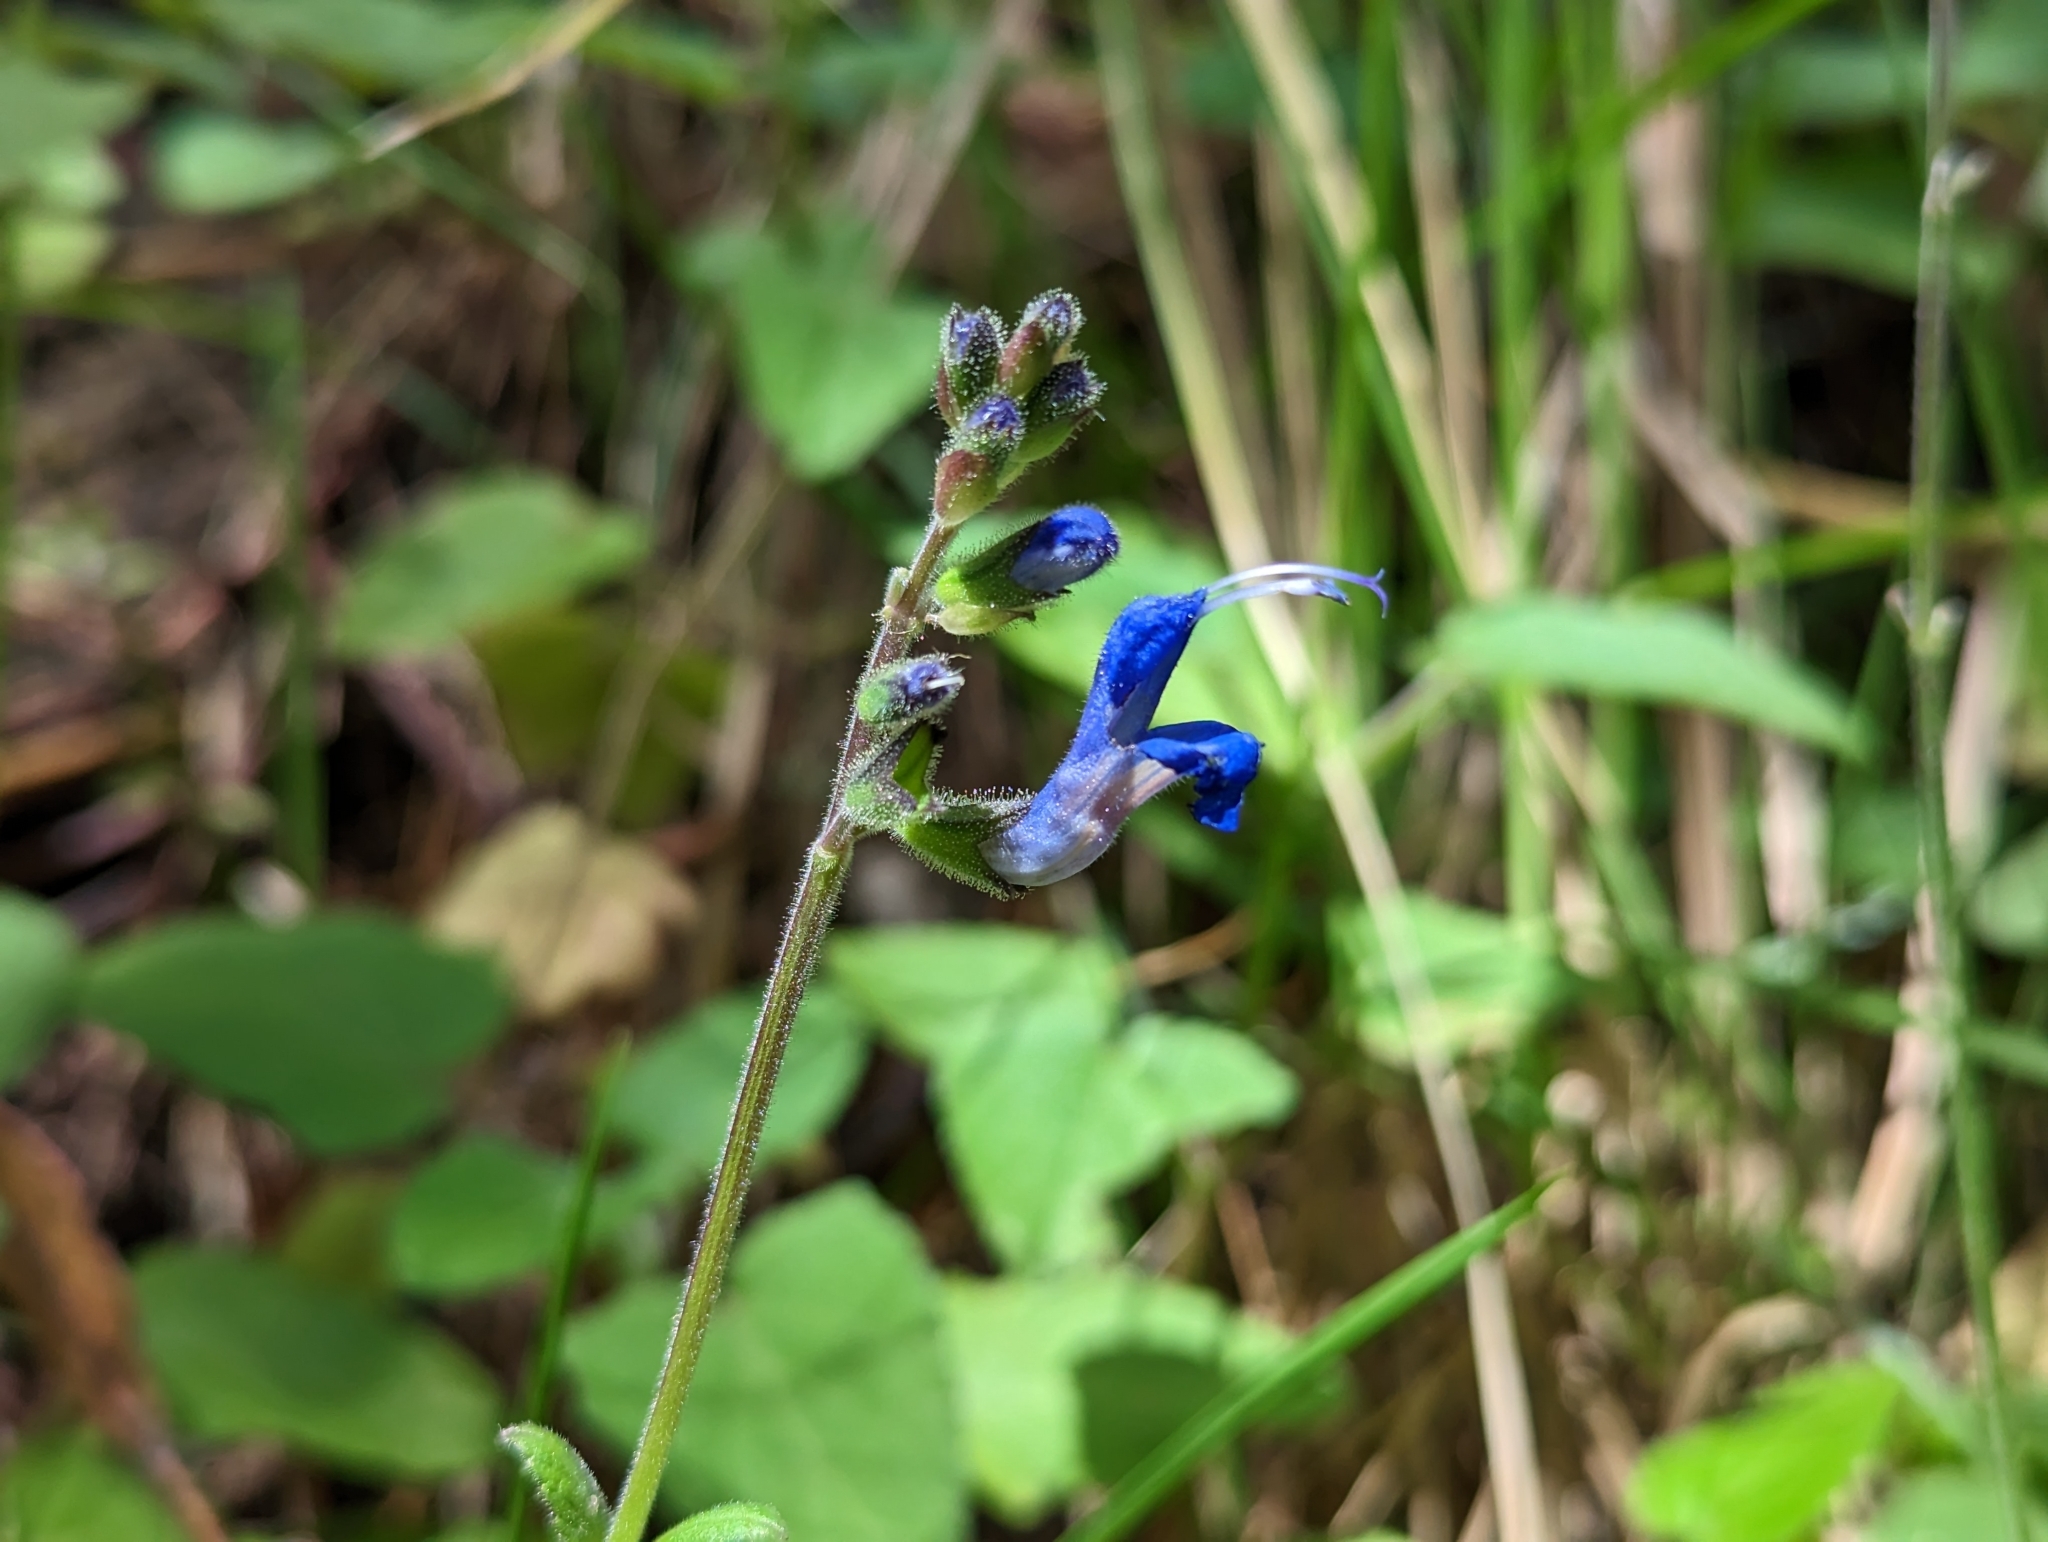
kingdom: Plantae
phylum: Tracheophyta
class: Magnoliopsida
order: Lamiales
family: Lamiaceae
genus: Salvia
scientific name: Salvia scutellarioides
